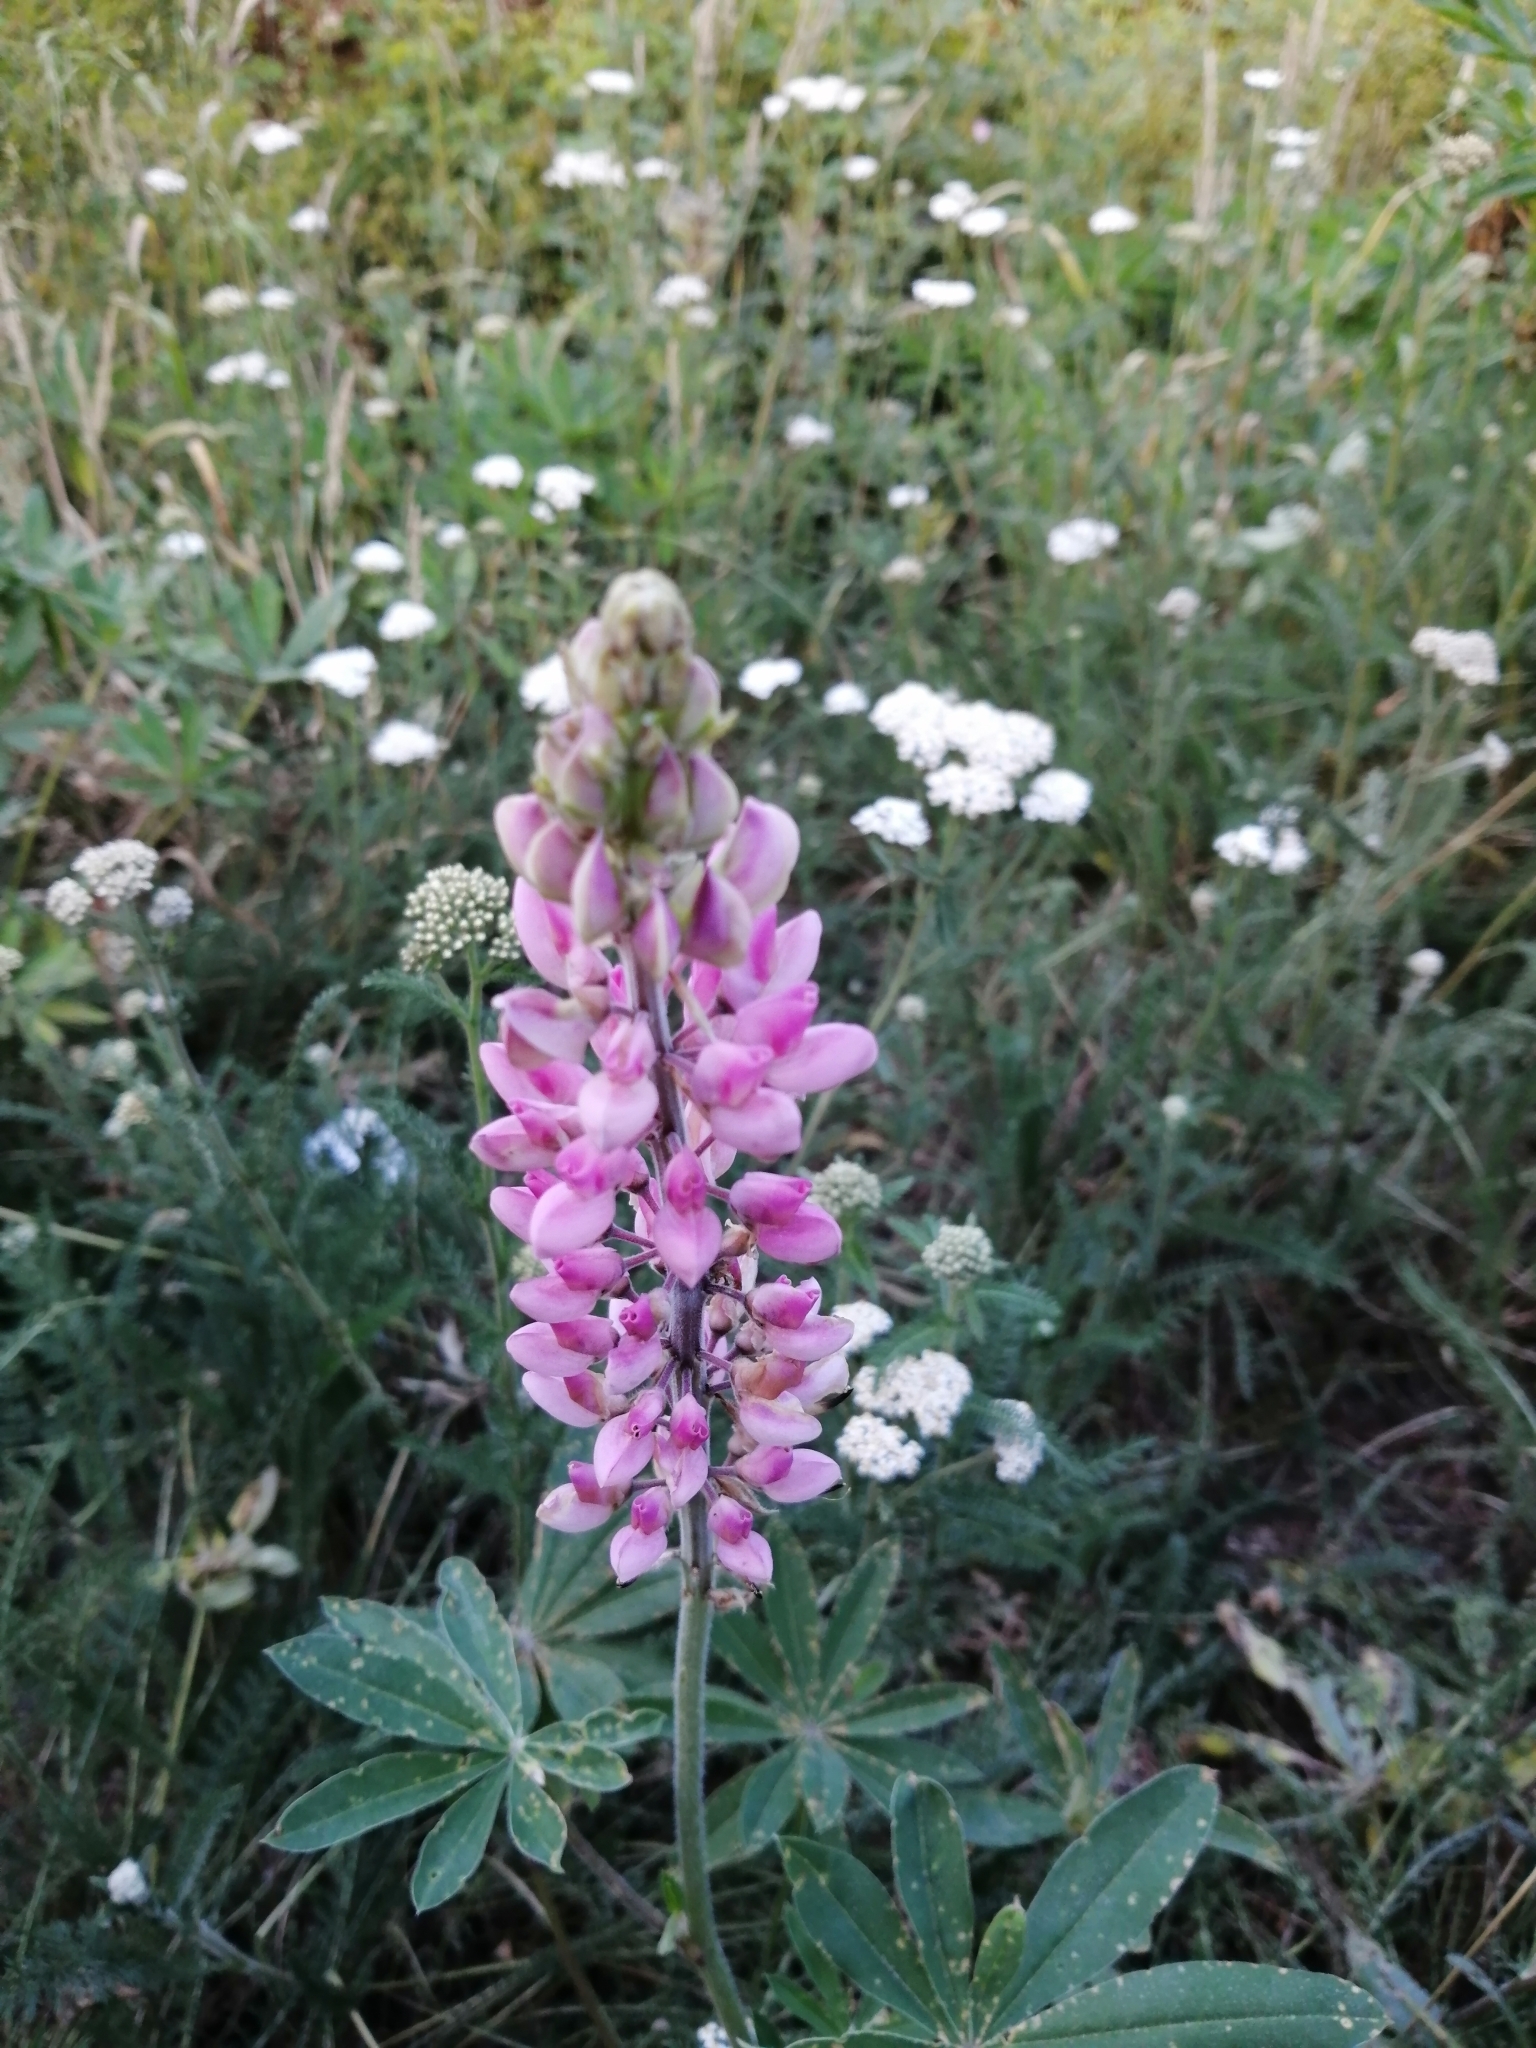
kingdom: Plantae
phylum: Tracheophyta
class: Magnoliopsida
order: Fabales
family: Fabaceae
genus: Lupinus
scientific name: Lupinus polyphyllus
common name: Garden lupin
